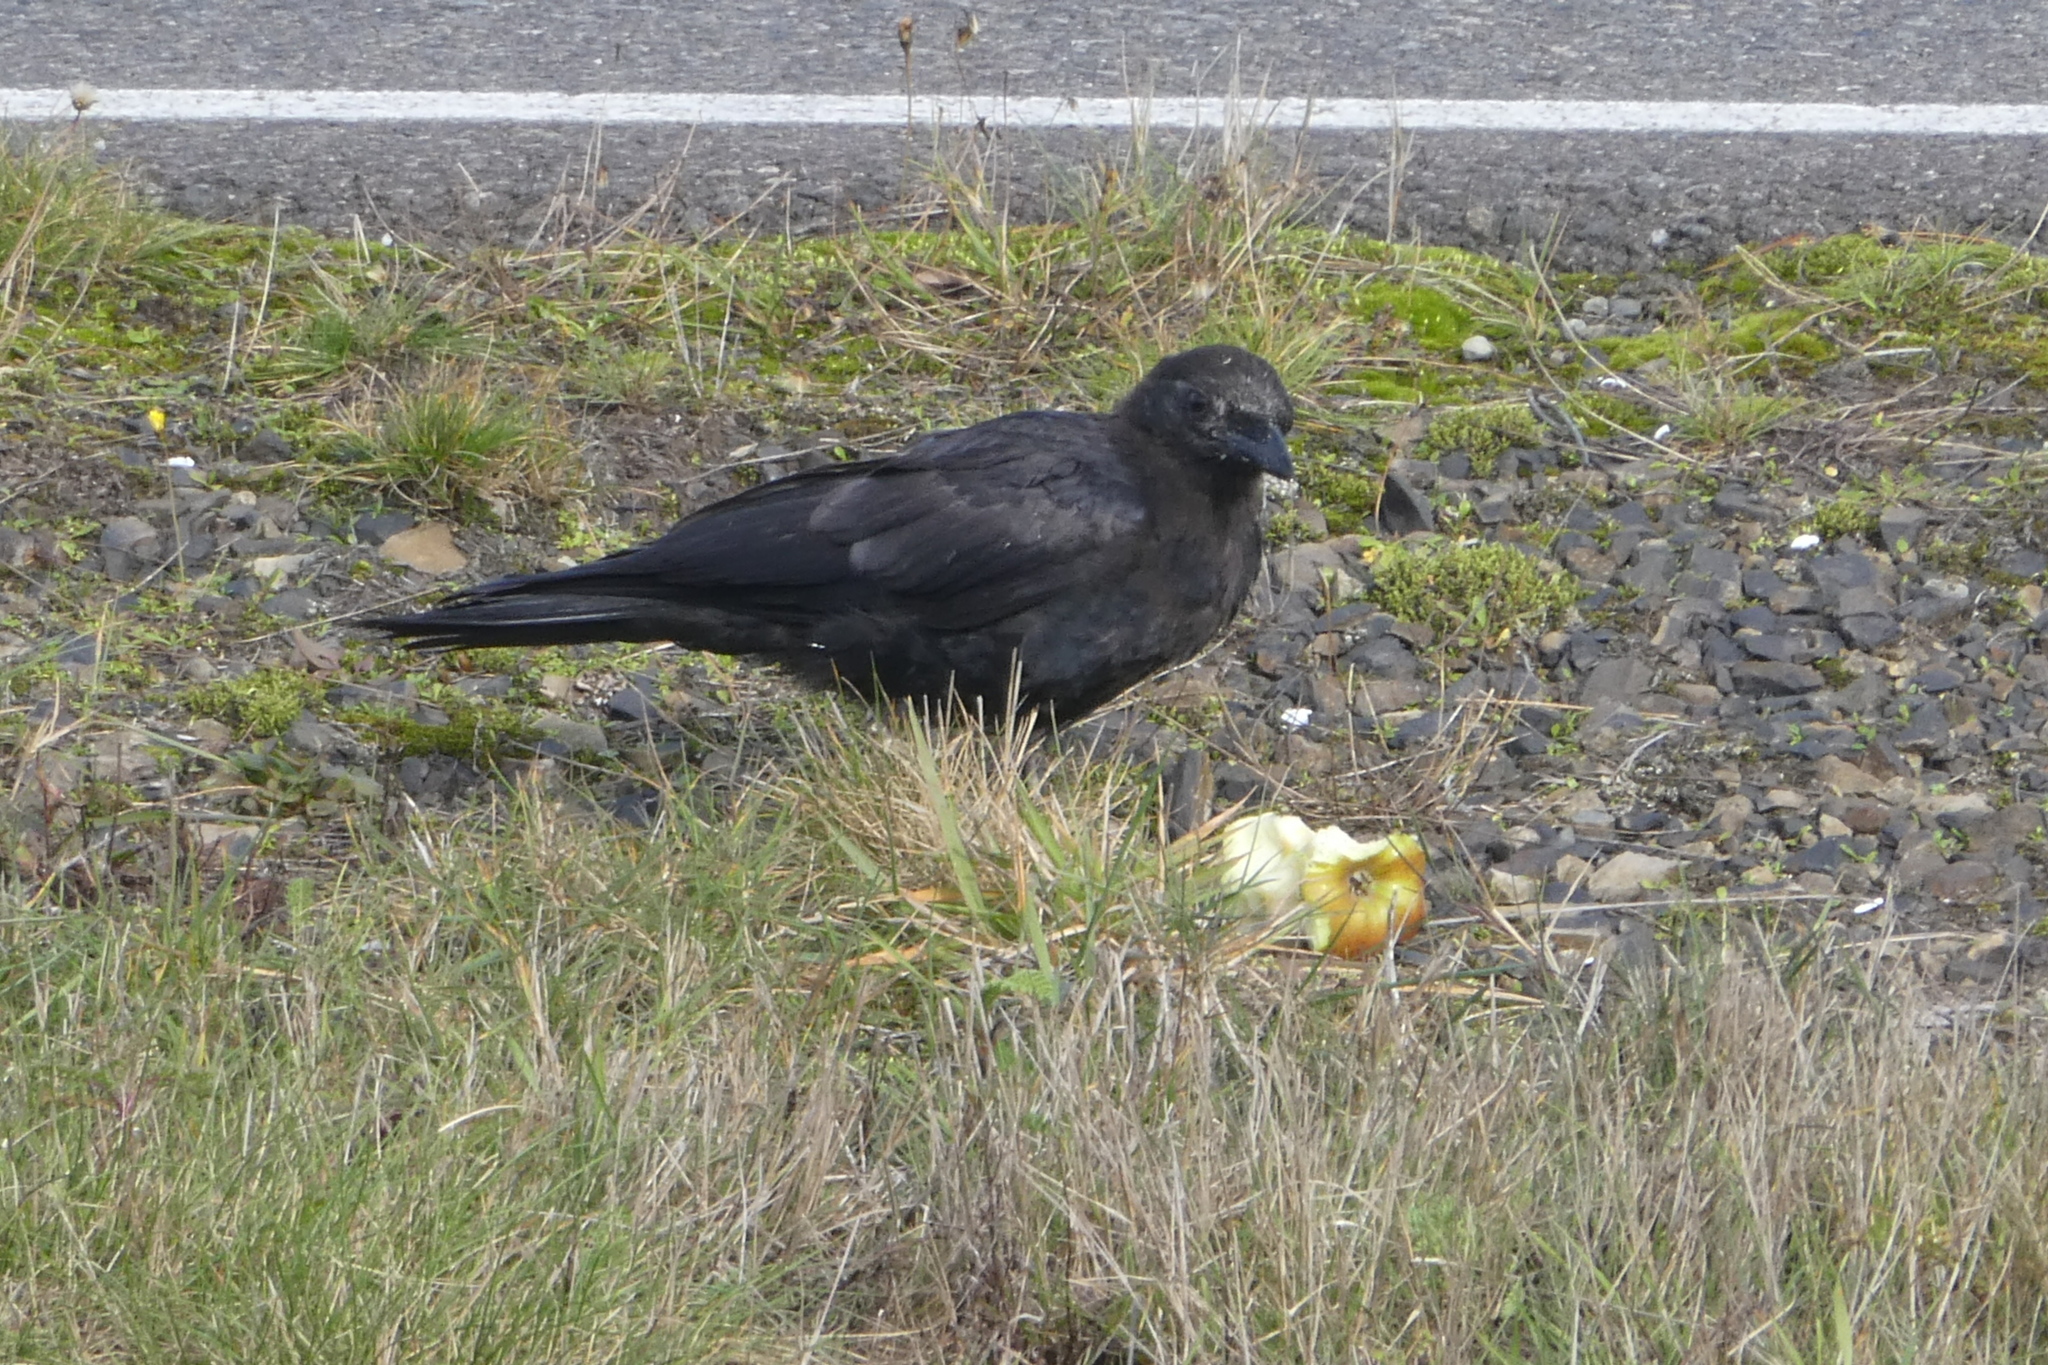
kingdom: Animalia
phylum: Chordata
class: Aves
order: Passeriformes
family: Corvidae
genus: Corvus
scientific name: Corvus brachyrhynchos
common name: American crow
